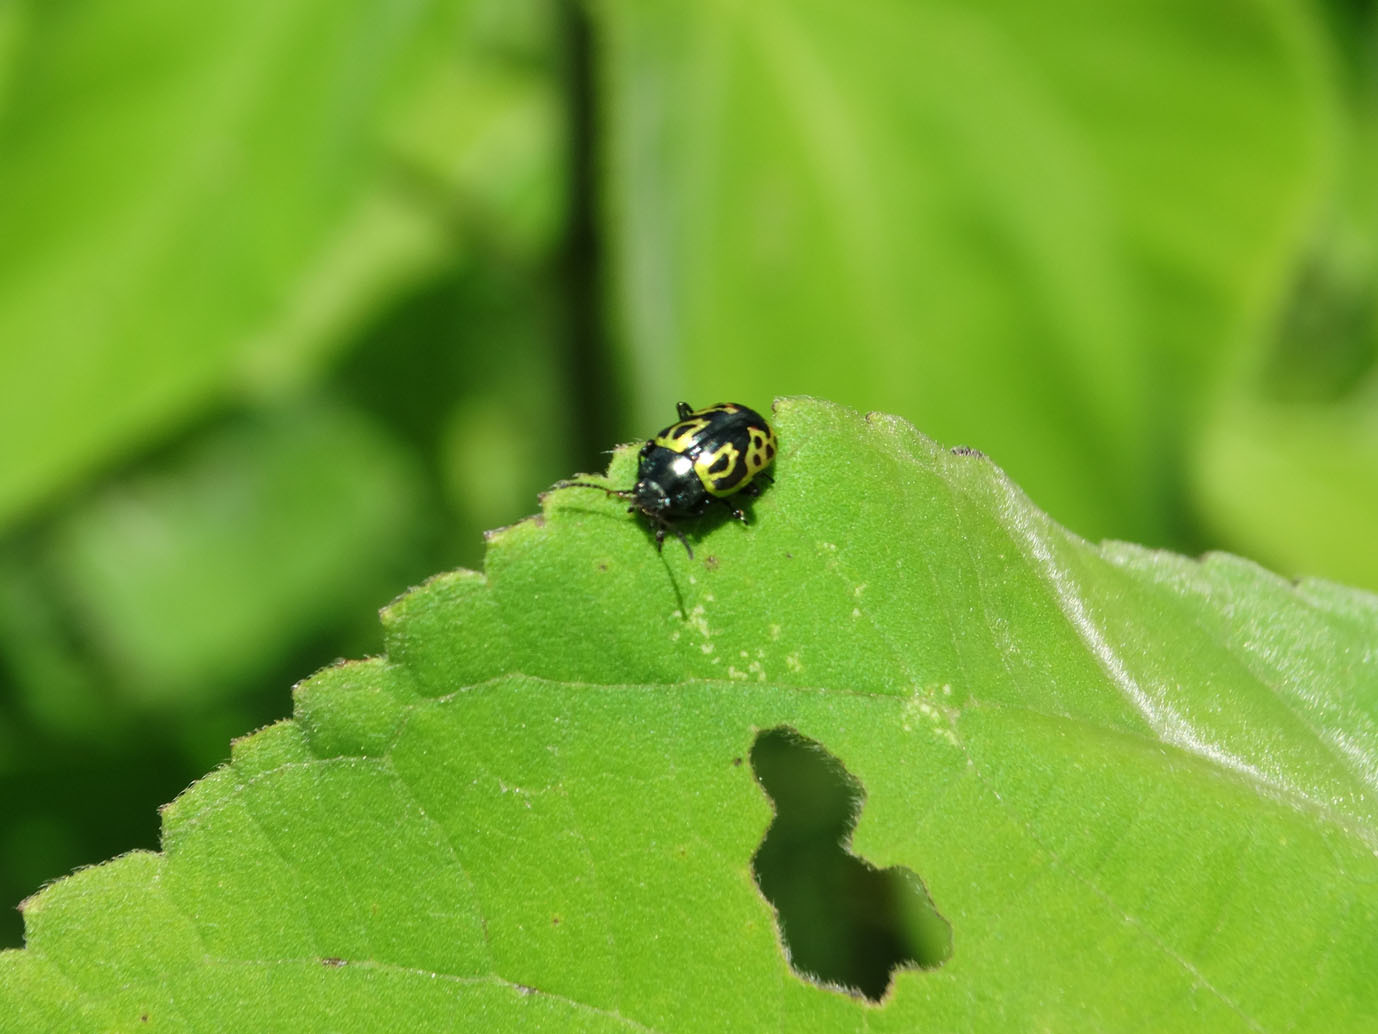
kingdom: Animalia
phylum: Arthropoda
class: Insecta
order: Coleoptera
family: Chrysomelidae
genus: Calligrapha
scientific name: Calligrapha
